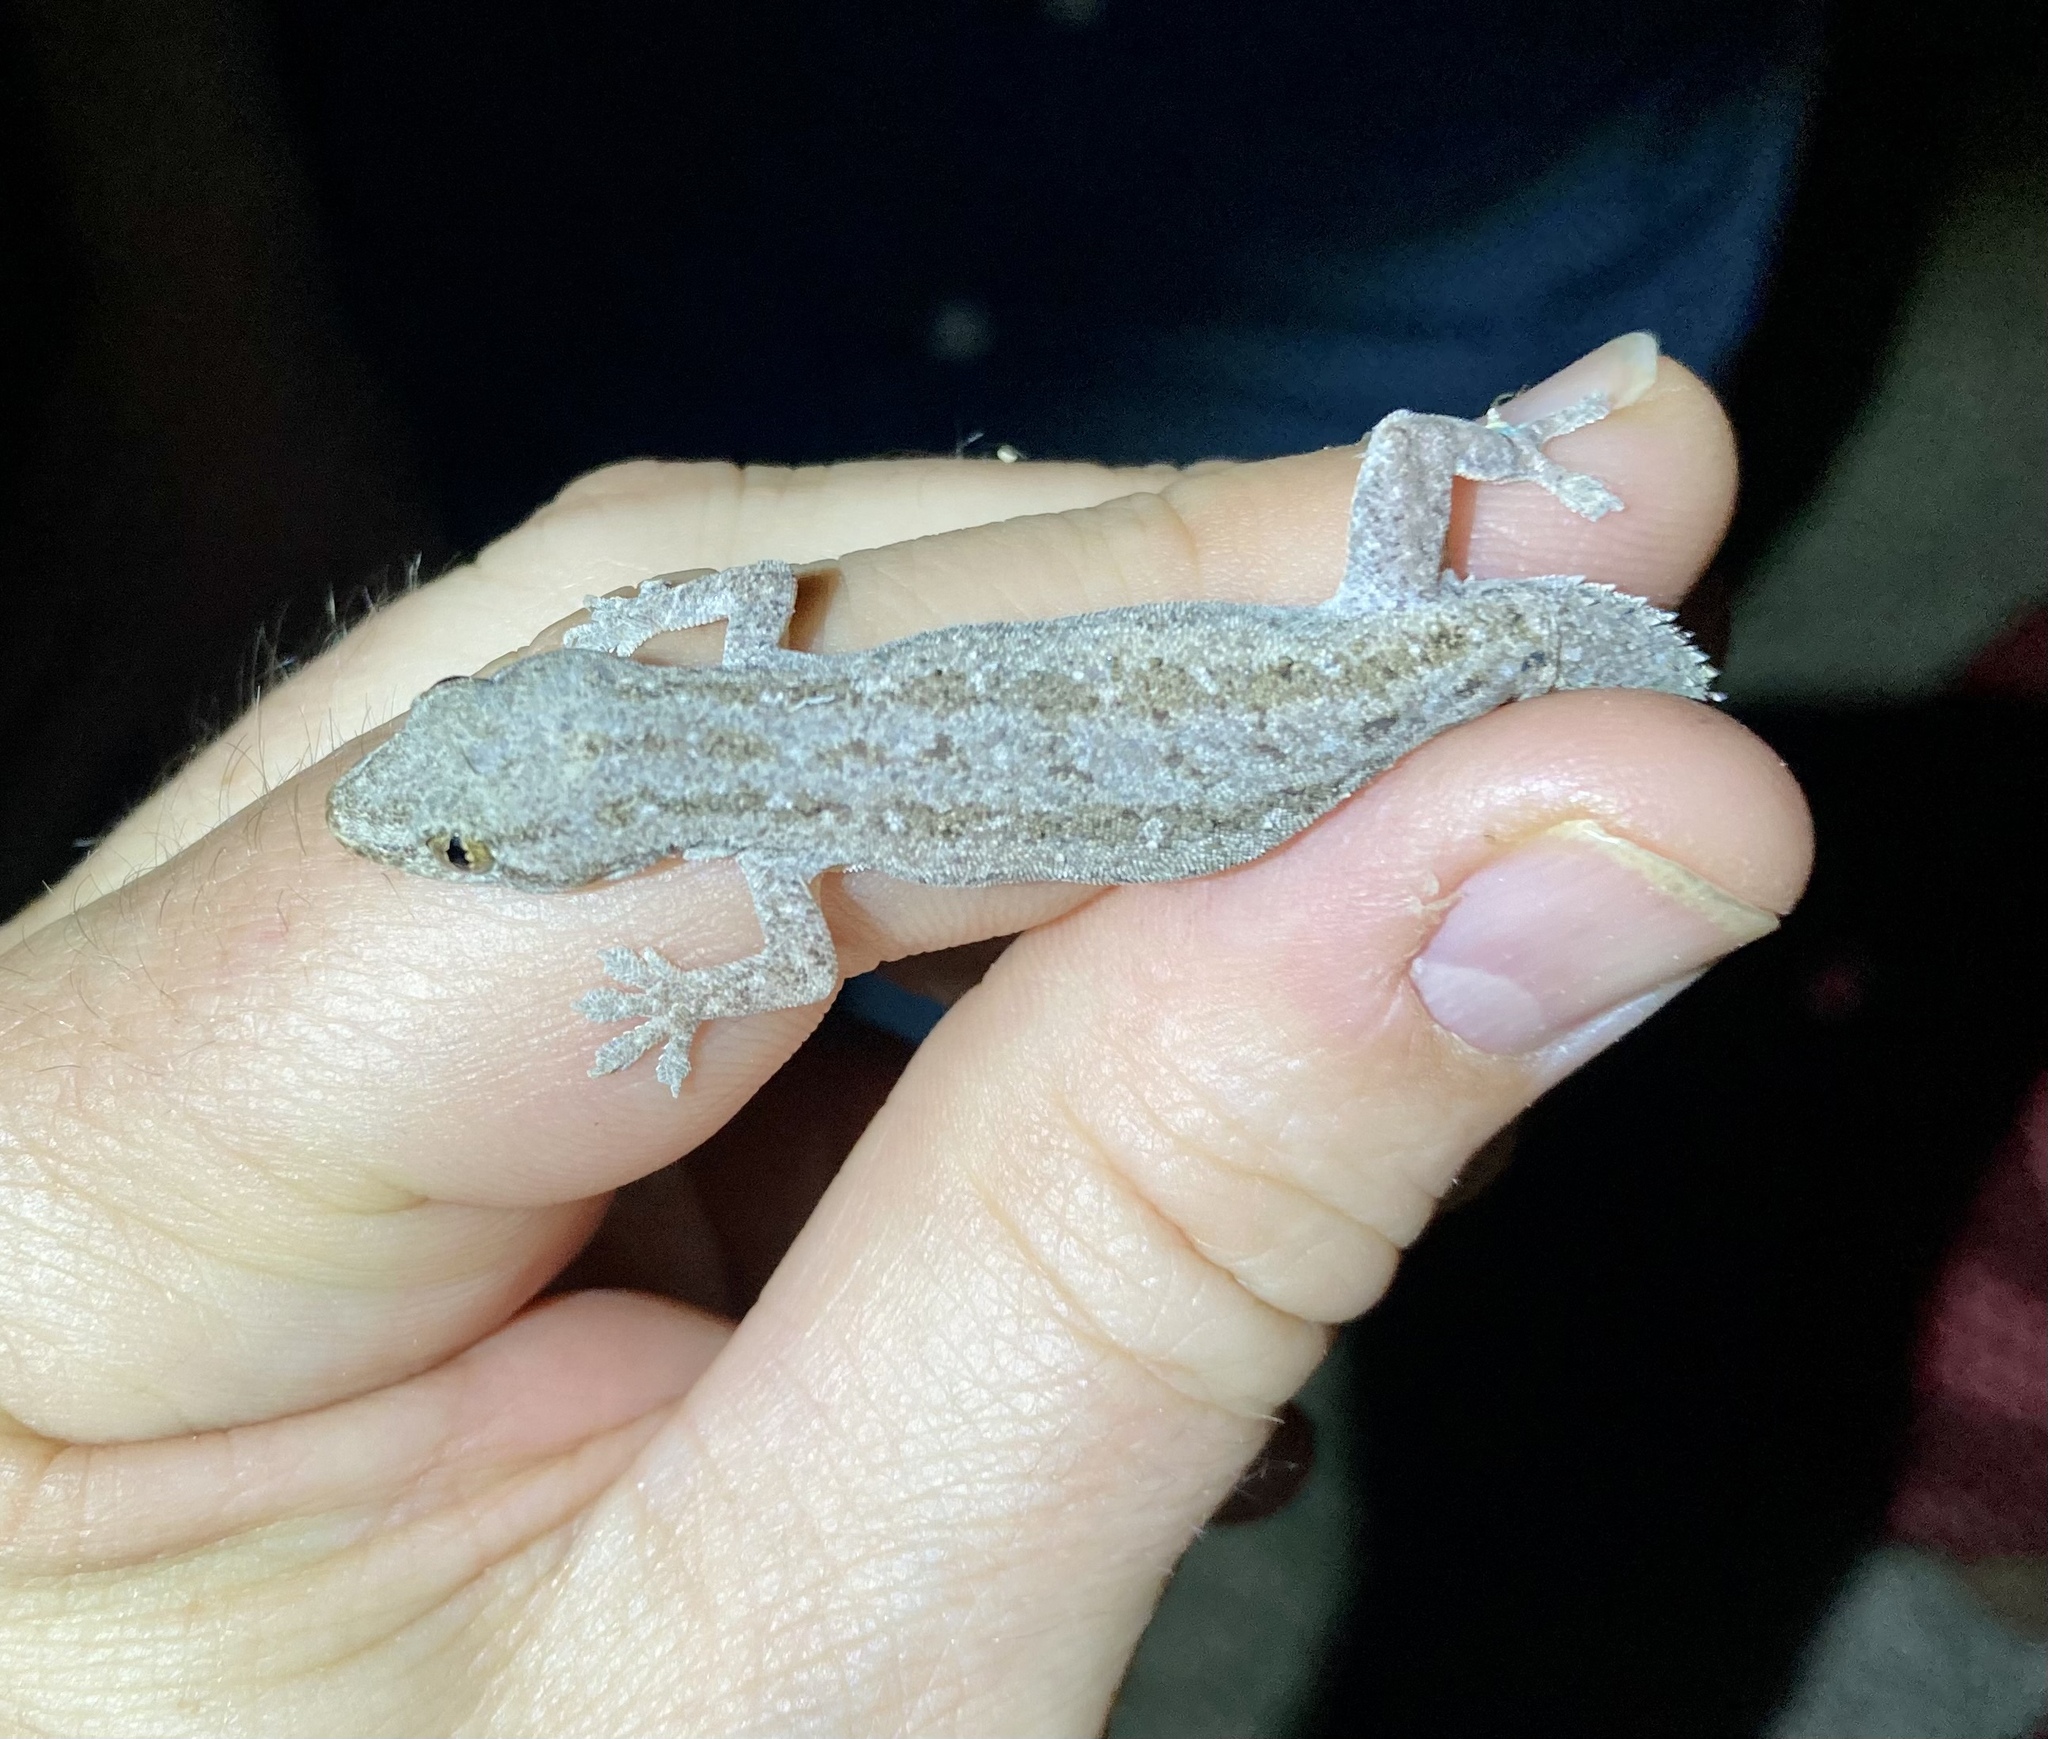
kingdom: Animalia
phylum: Chordata
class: Squamata
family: Gekkonidae
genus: Hemidactylus
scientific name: Hemidactylus frenatus
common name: Common house gecko
